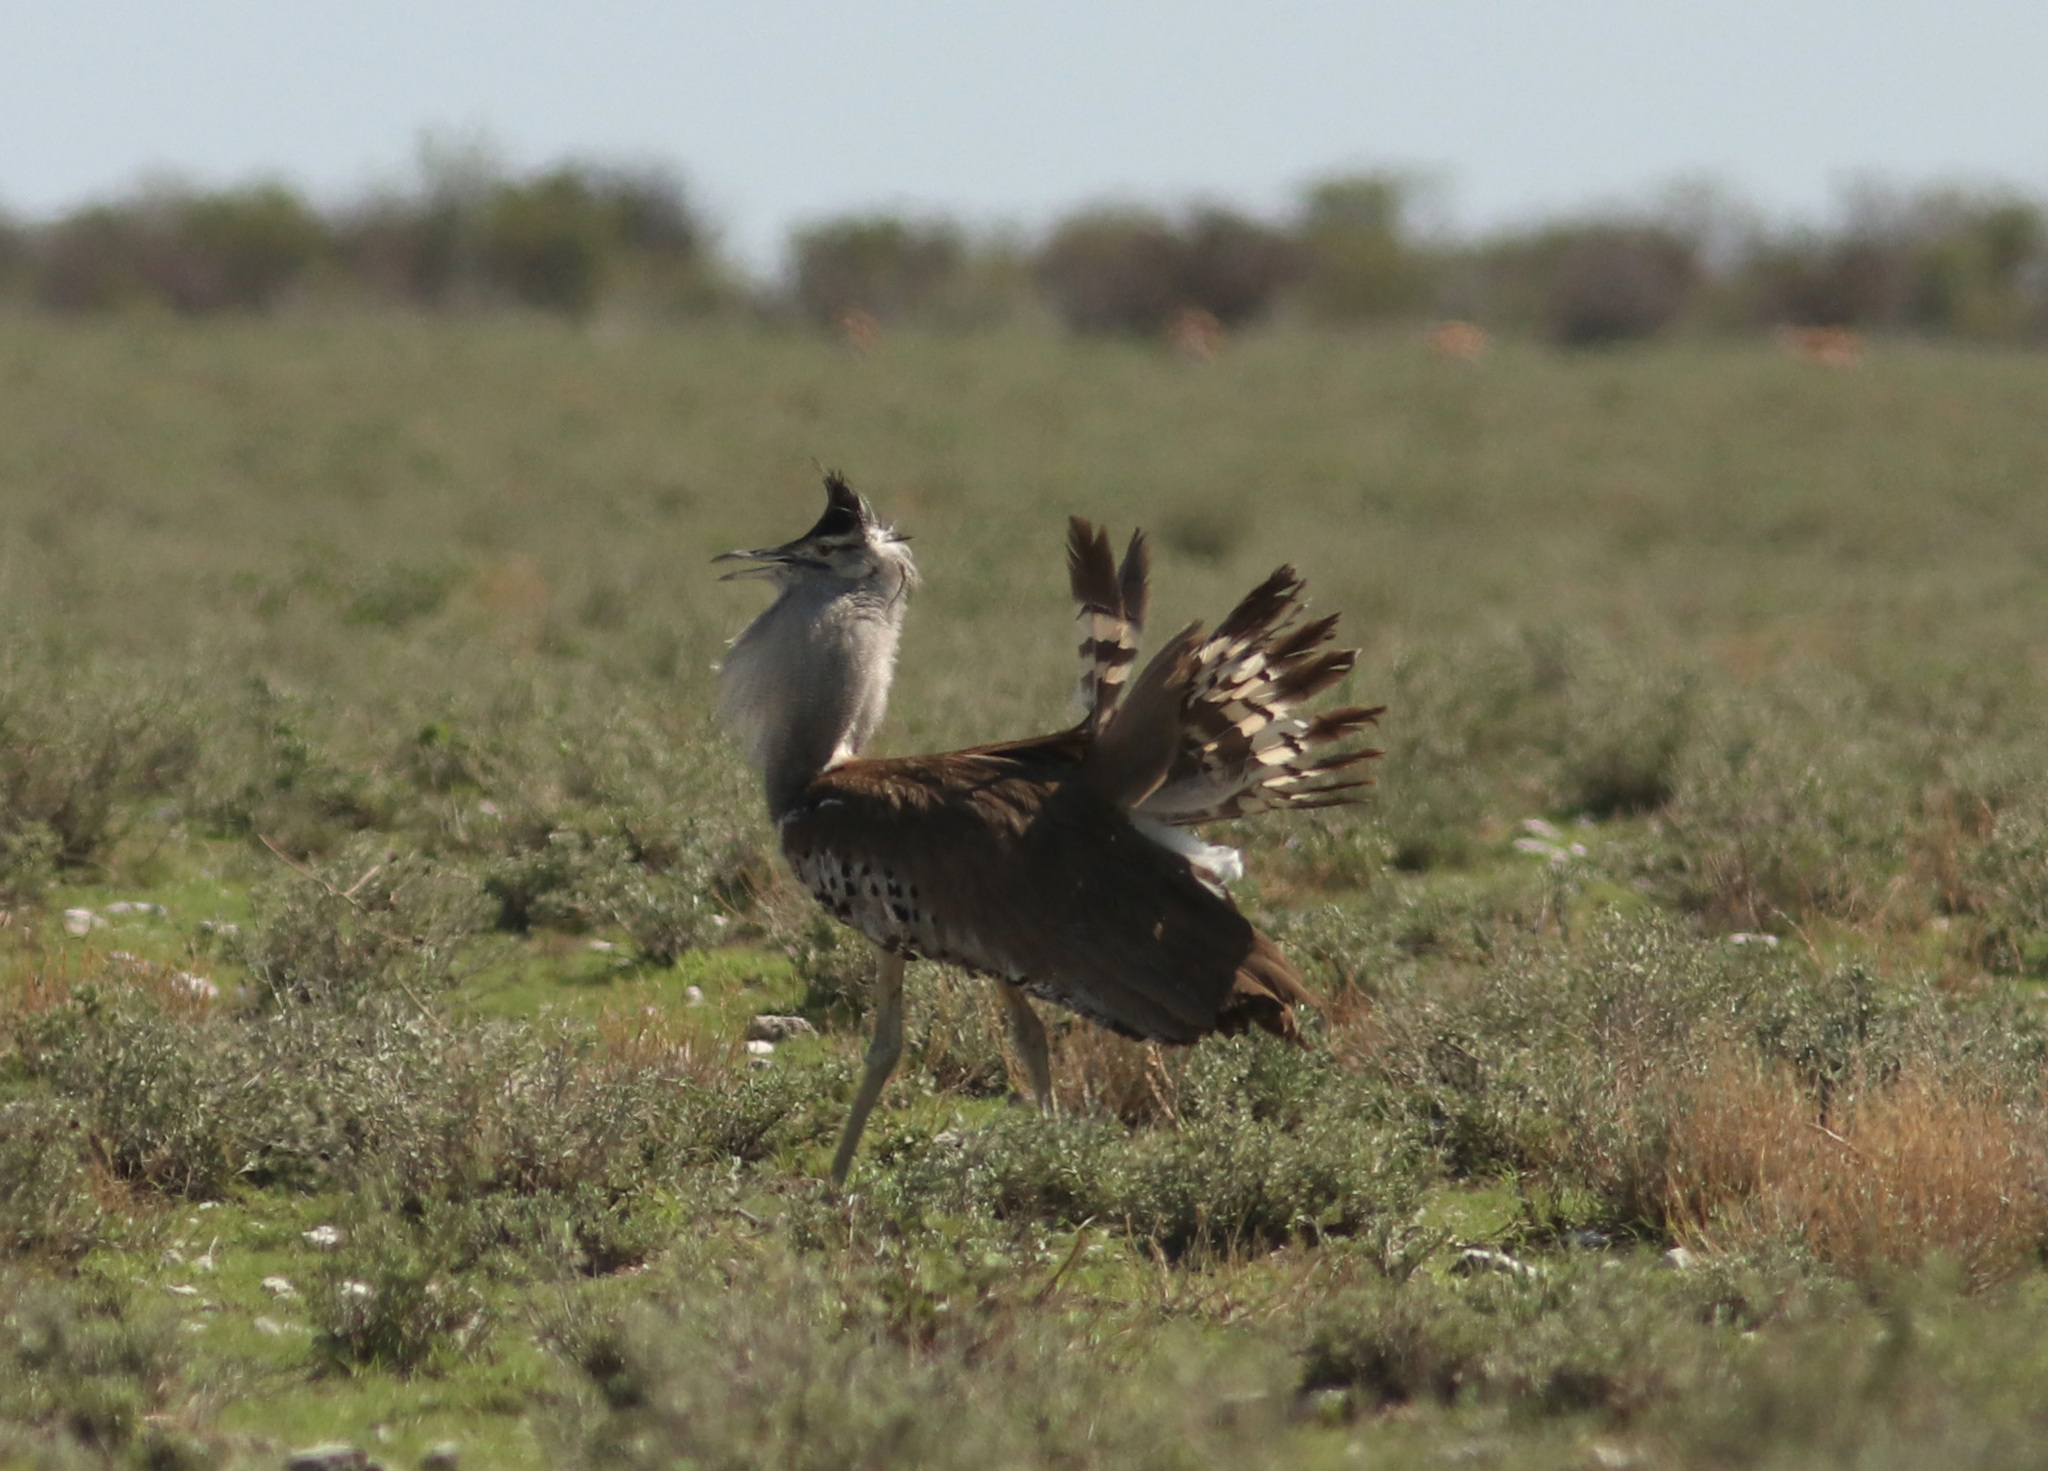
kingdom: Animalia
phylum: Chordata
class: Aves
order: Otidiformes
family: Otididae
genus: Ardeotis
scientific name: Ardeotis kori
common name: Kori bustard
